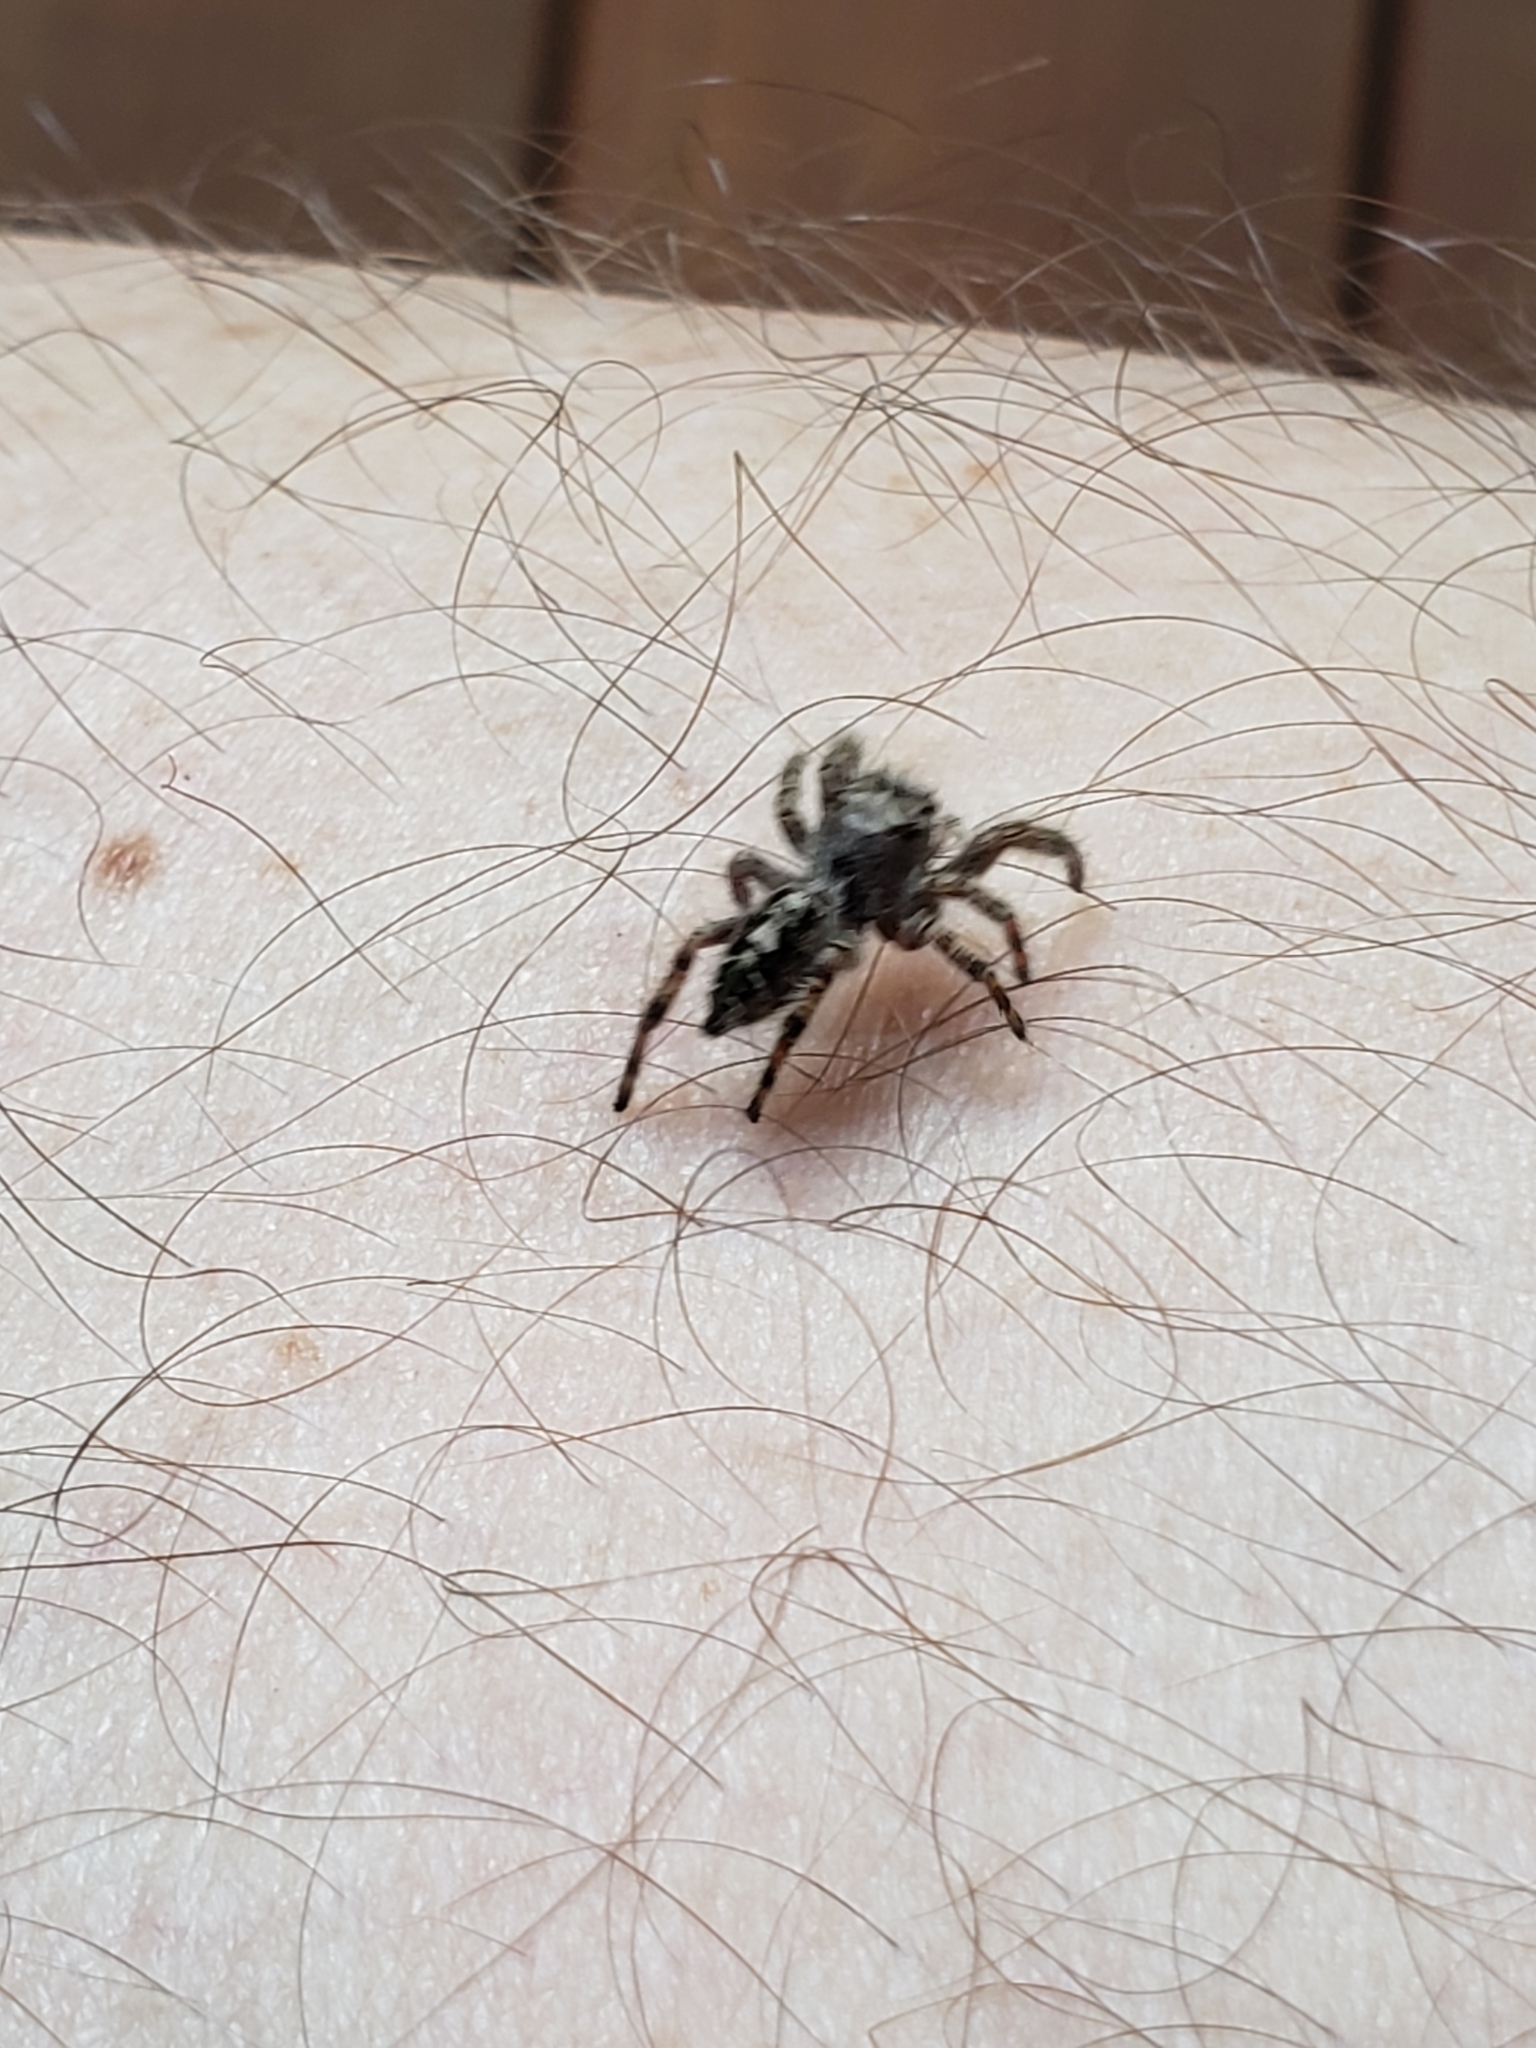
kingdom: Animalia
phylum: Arthropoda
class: Arachnida
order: Araneae
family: Salticidae
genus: Phidippus
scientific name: Phidippus putnami
